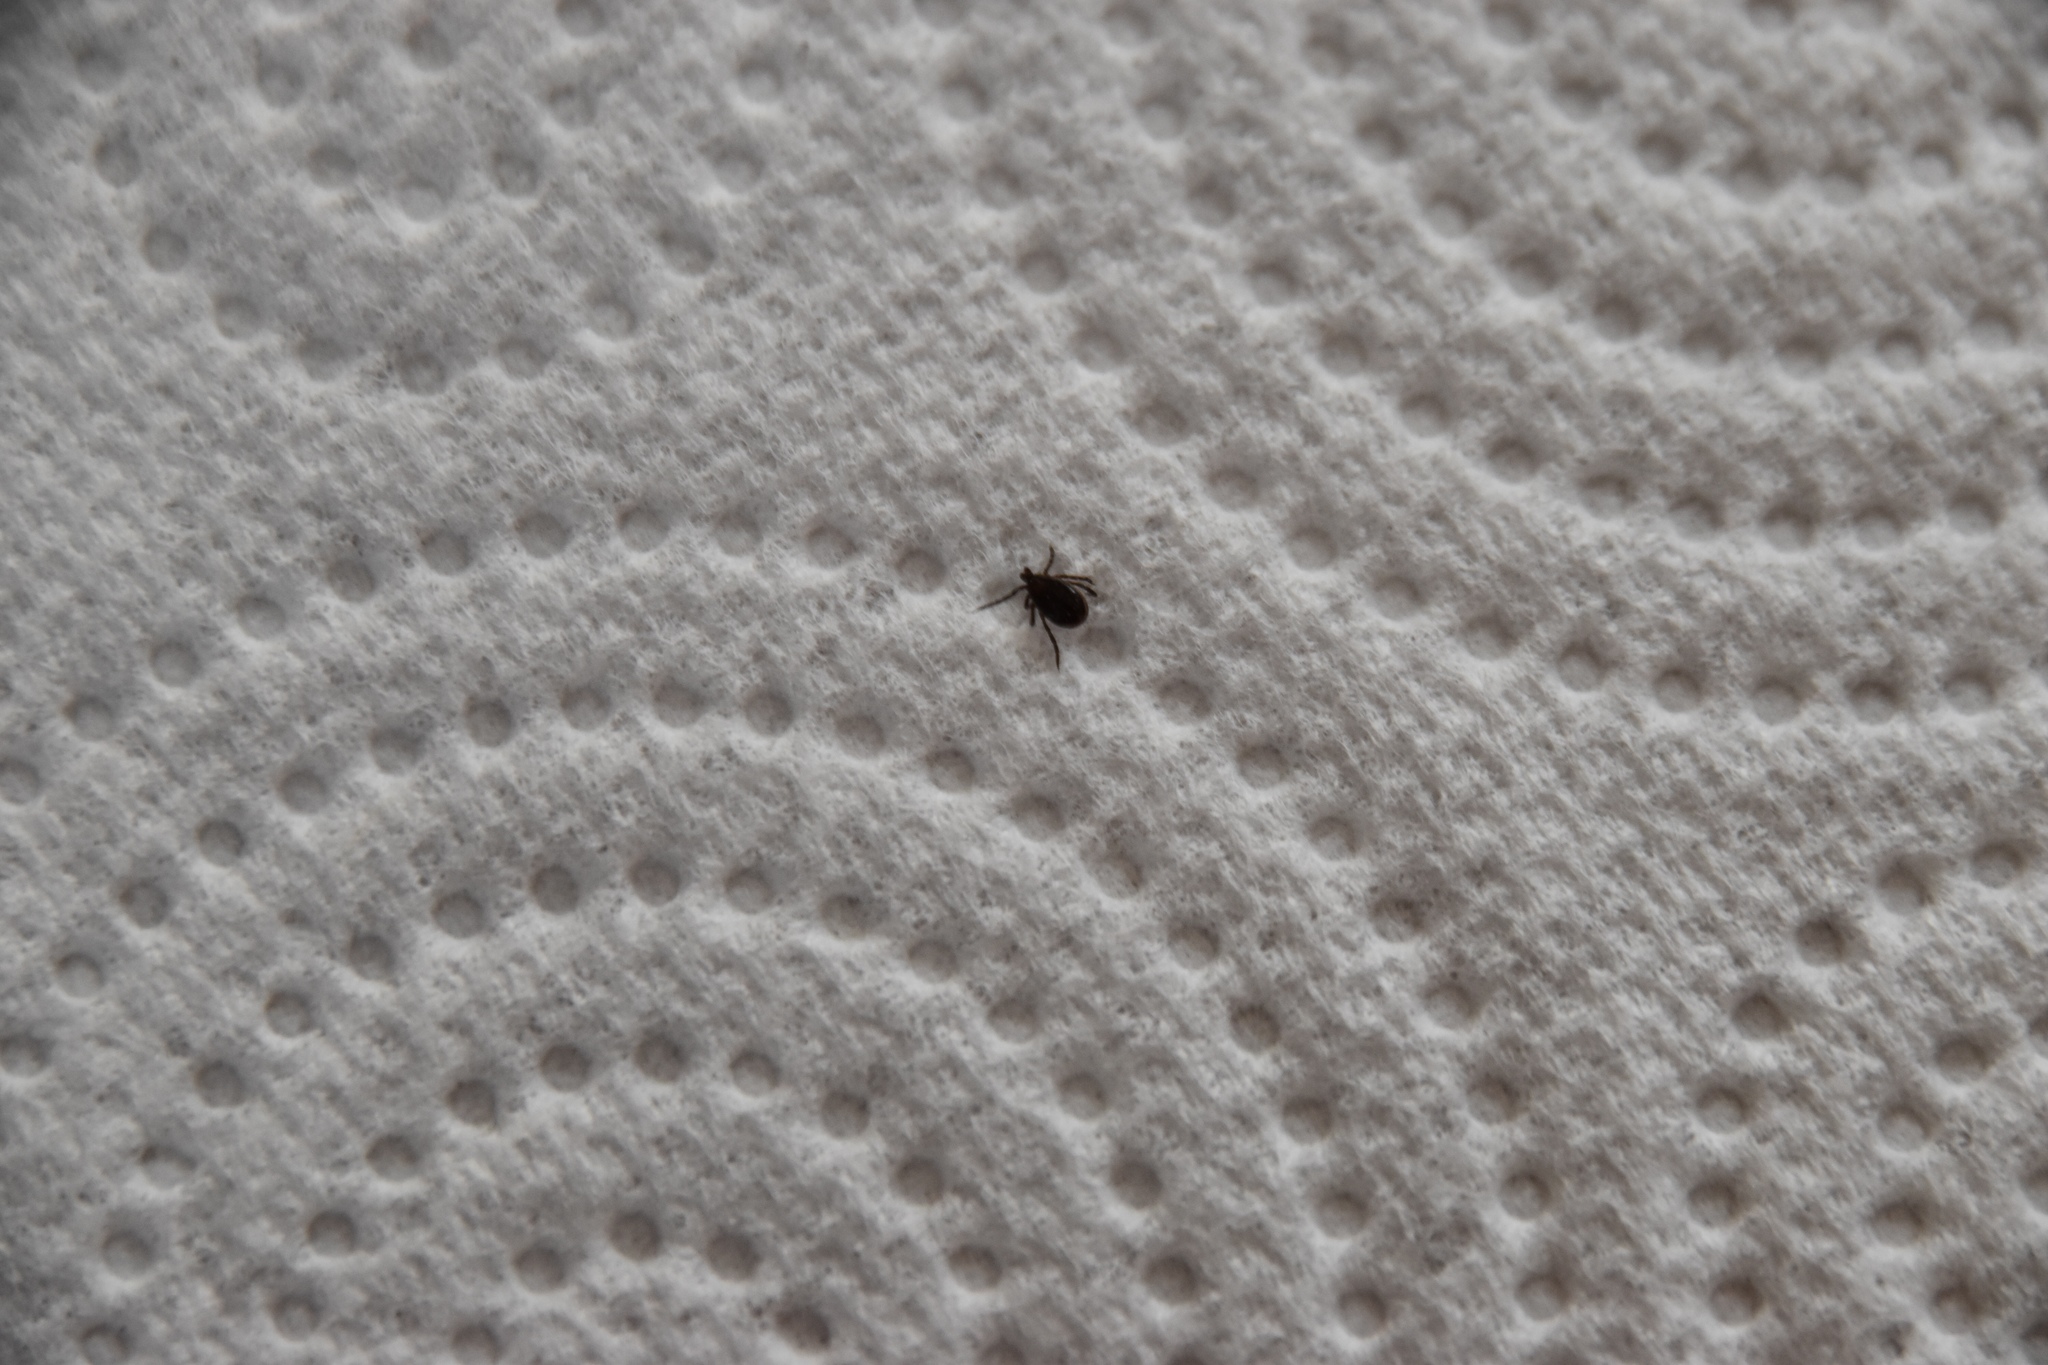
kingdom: Animalia
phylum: Arthropoda
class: Arachnida
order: Ixodida
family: Ixodidae
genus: Ixodes
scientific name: Ixodes ricinus
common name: Castor bean tick
